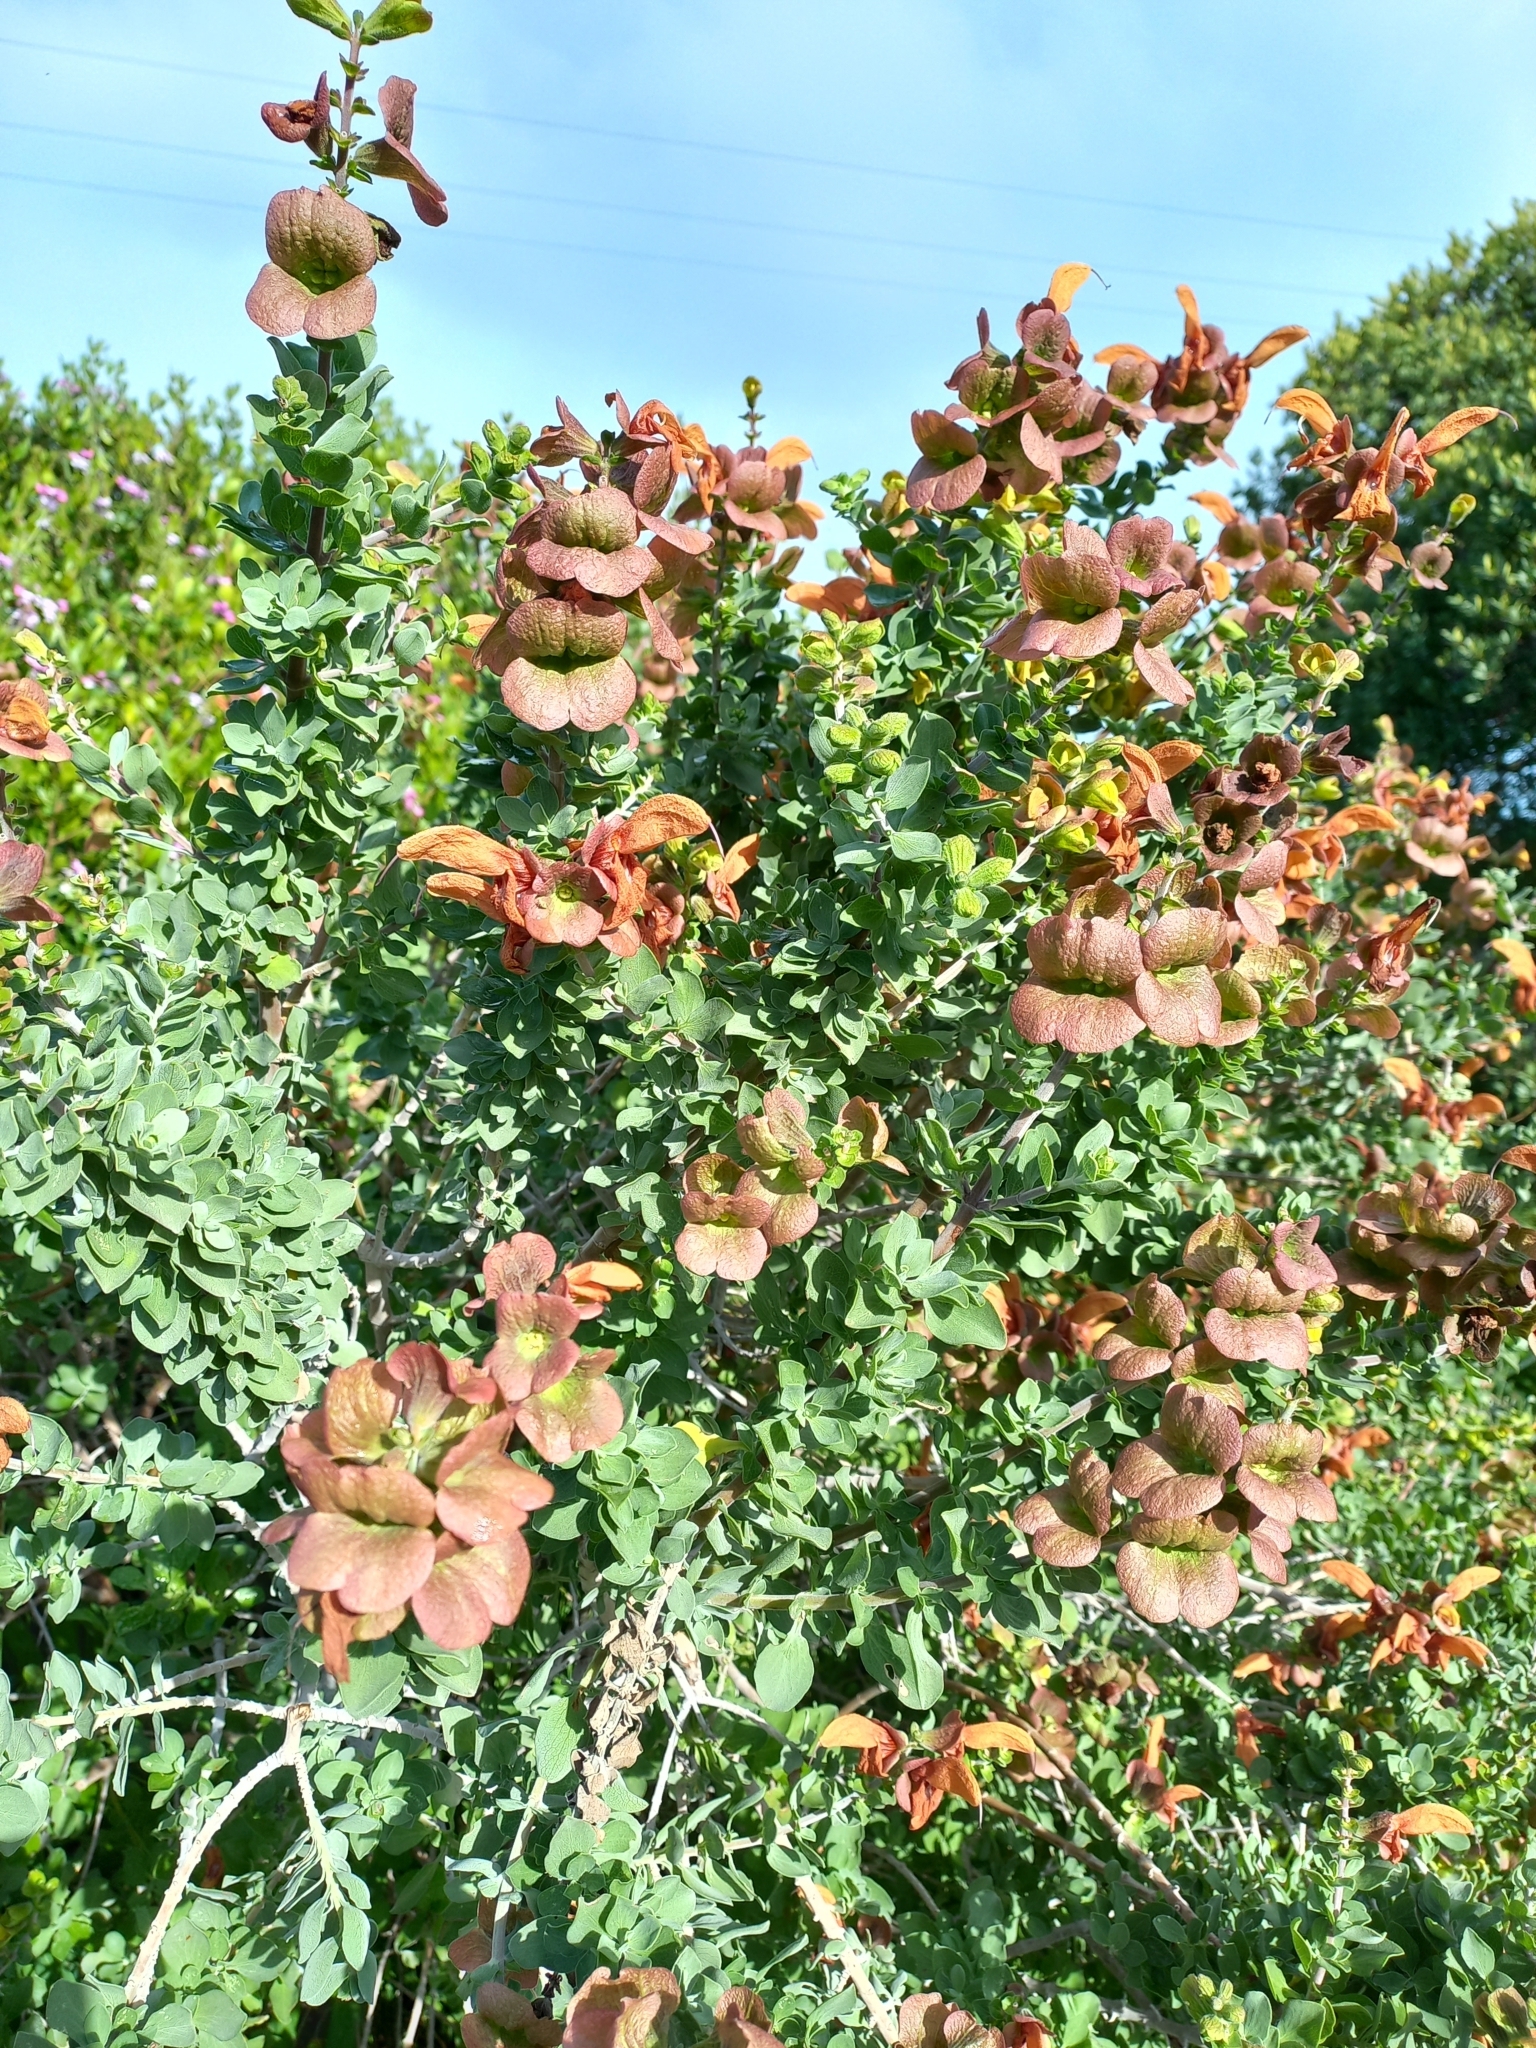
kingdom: Plantae
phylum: Tracheophyta
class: Magnoliopsida
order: Lamiales
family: Lamiaceae
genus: Salvia
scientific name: Salvia aurea
